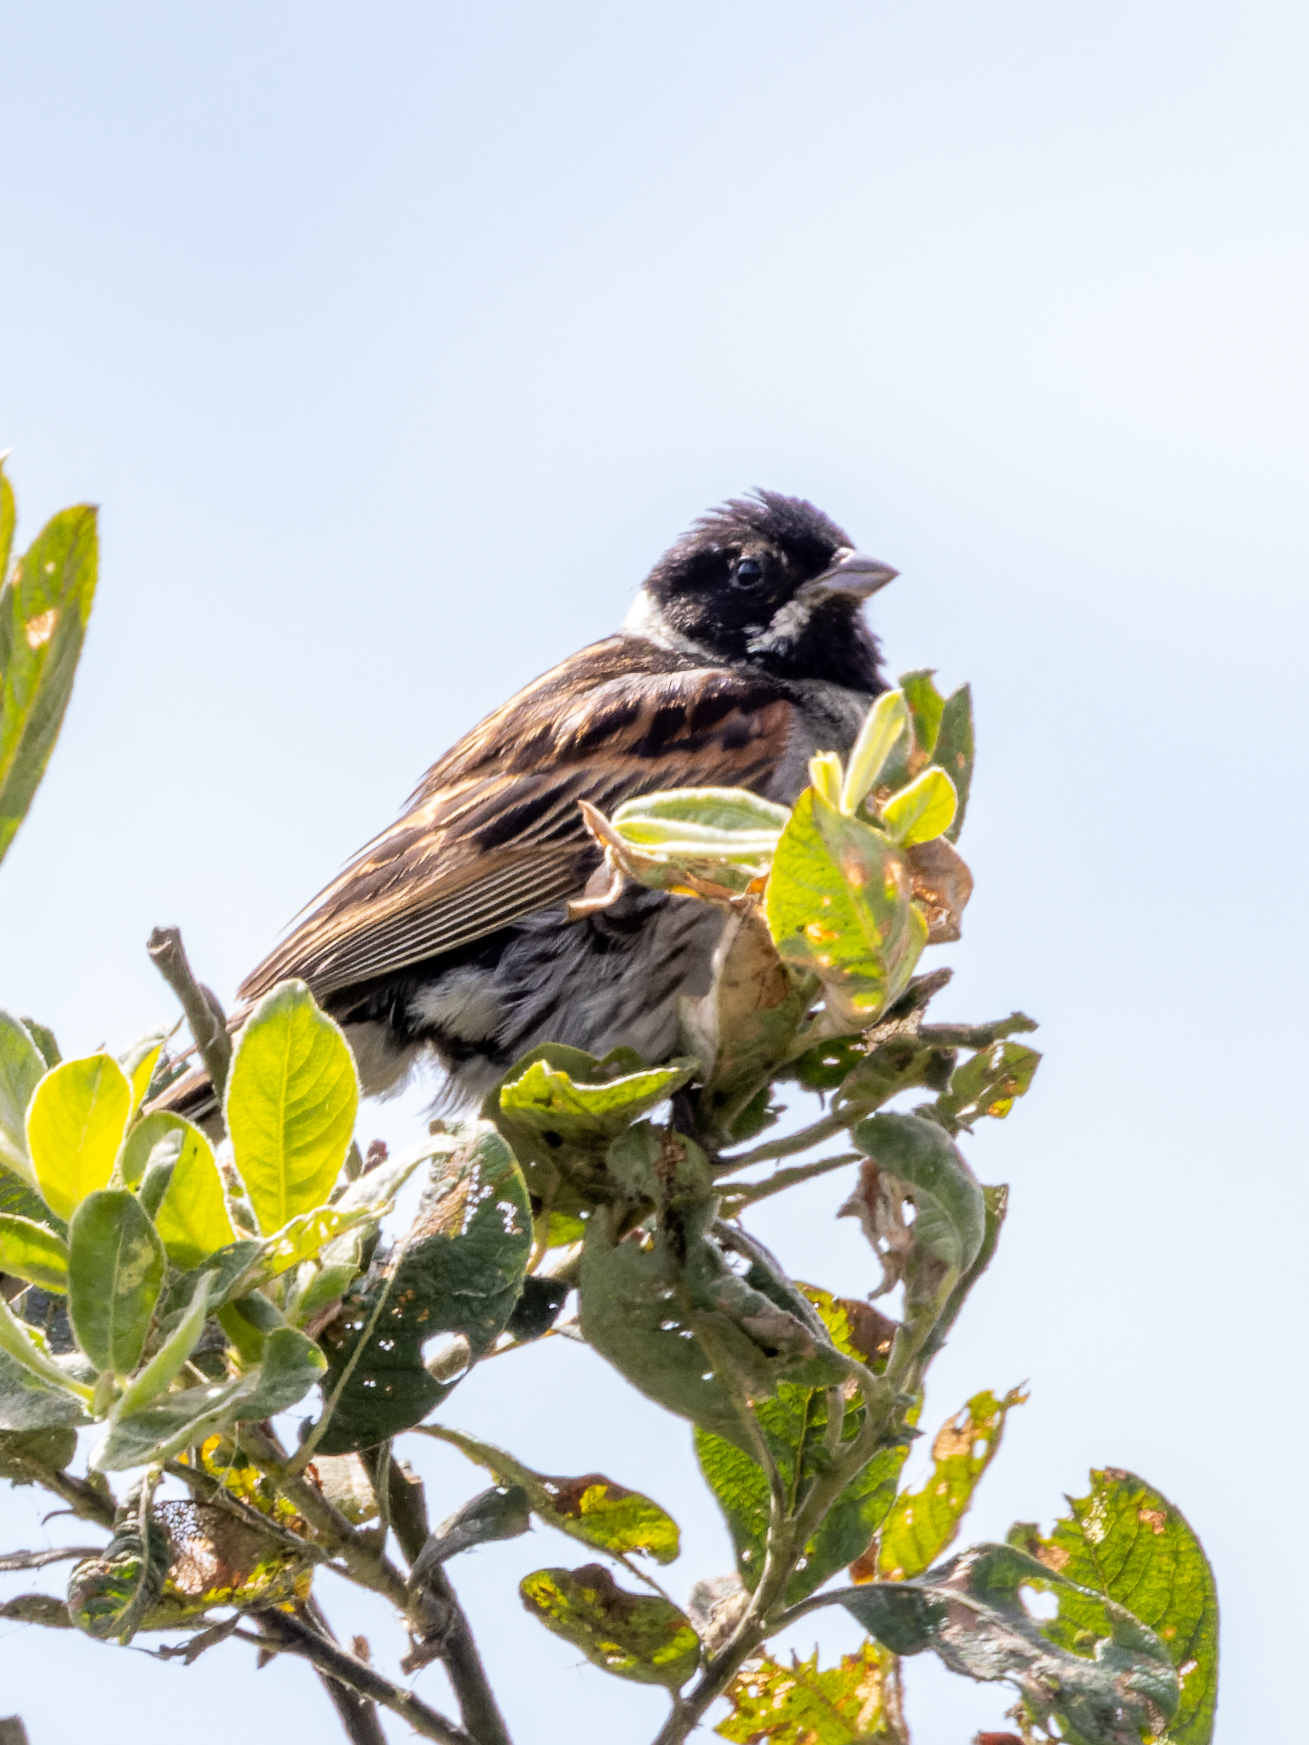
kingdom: Animalia
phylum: Chordata
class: Aves
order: Passeriformes
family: Emberizidae
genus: Emberiza
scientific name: Emberiza schoeniclus
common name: Reed bunting
